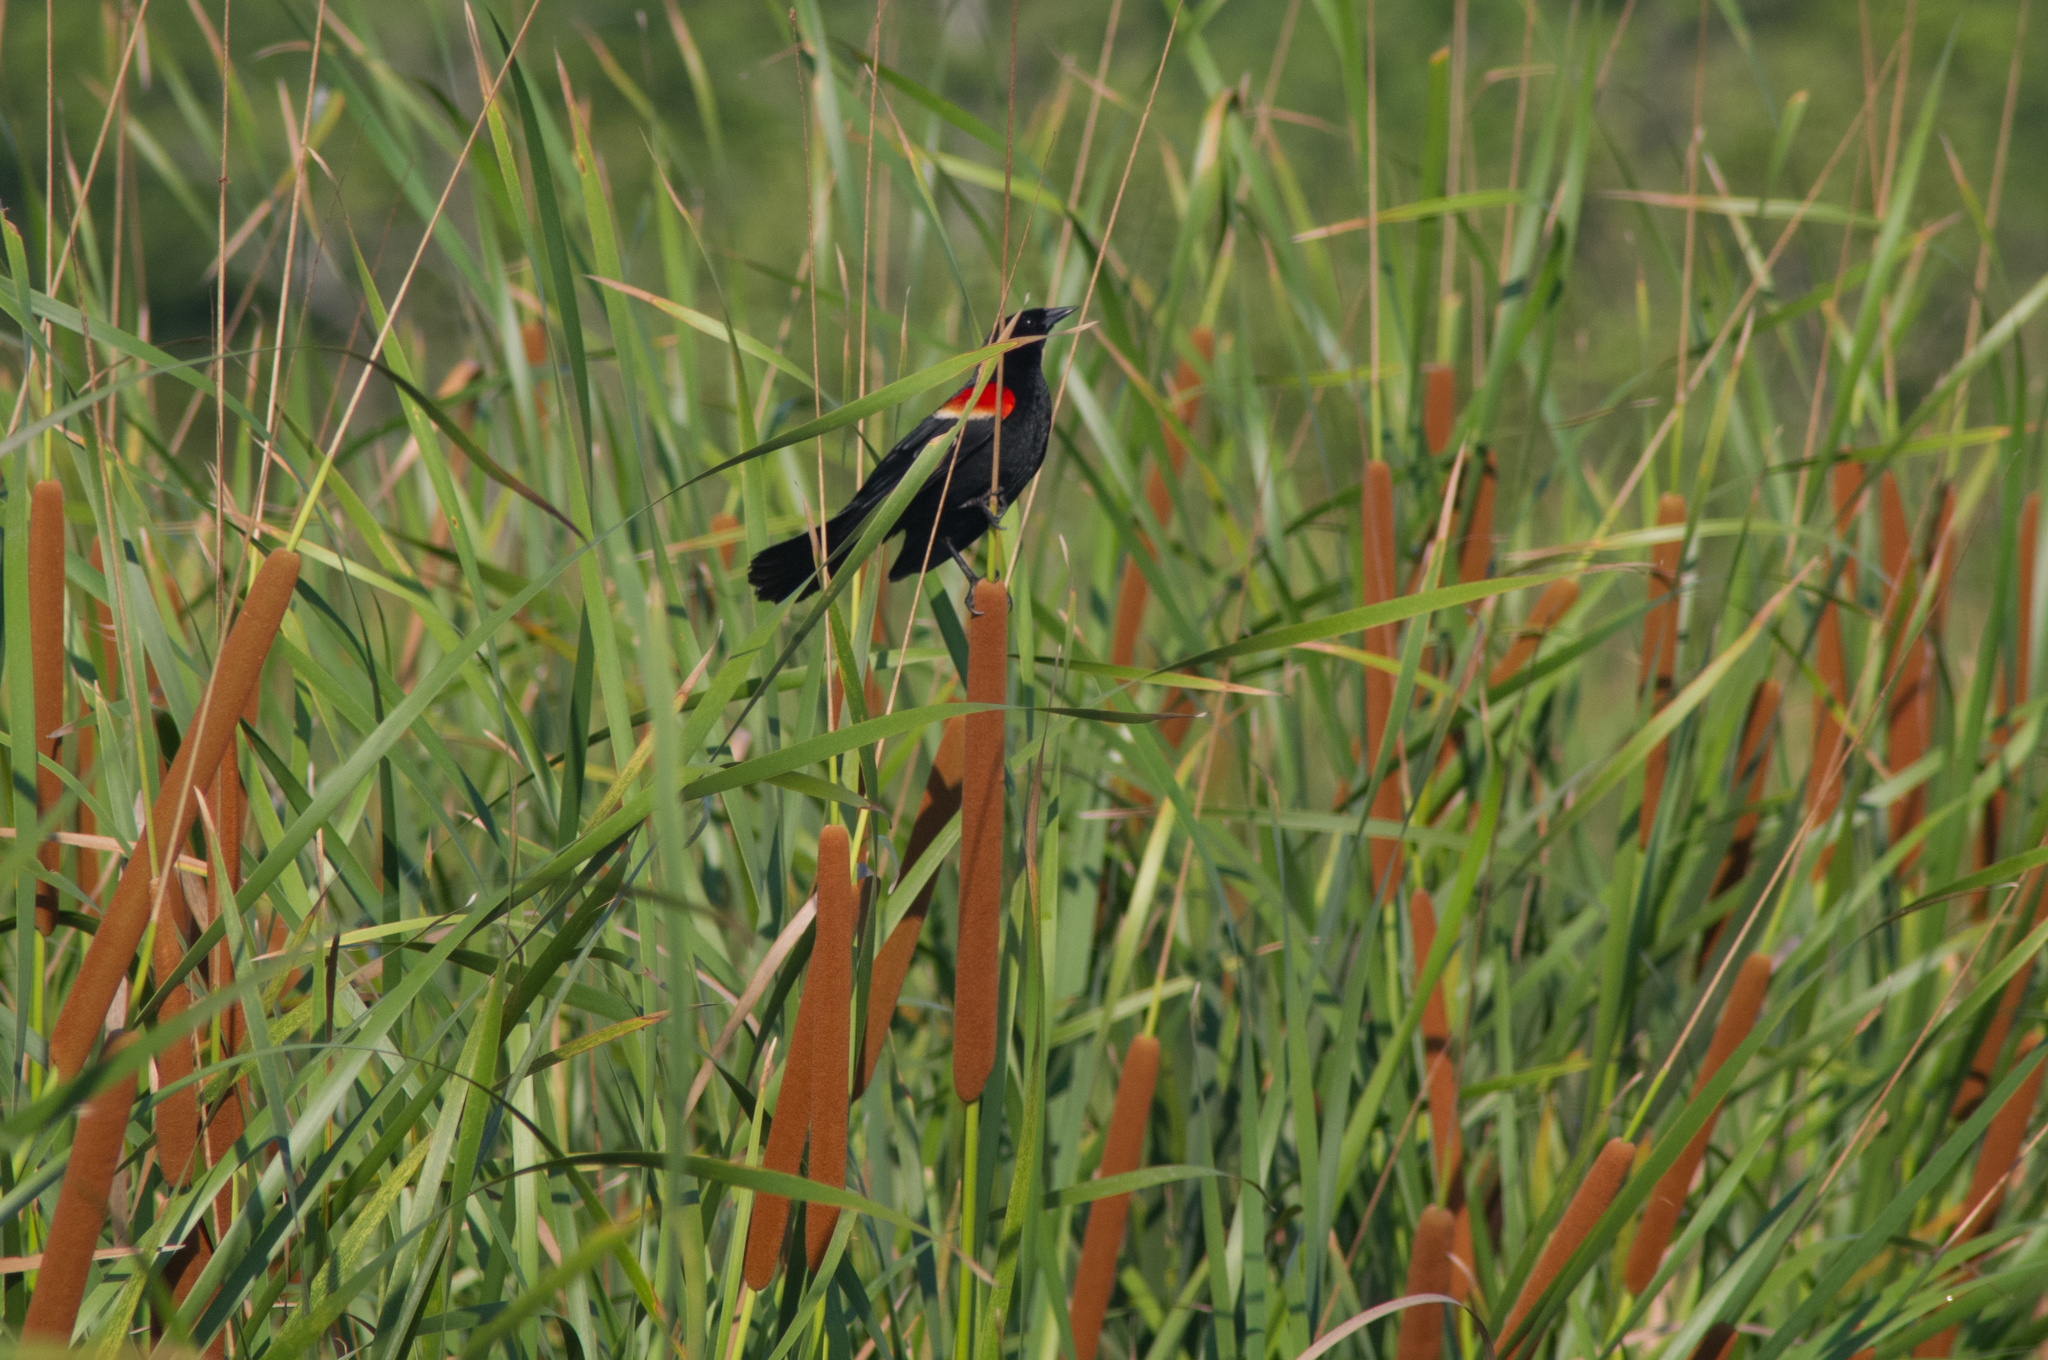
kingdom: Animalia
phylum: Chordata
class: Aves
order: Passeriformes
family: Icteridae
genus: Agelaius
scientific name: Agelaius phoeniceus
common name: Red-winged blackbird
